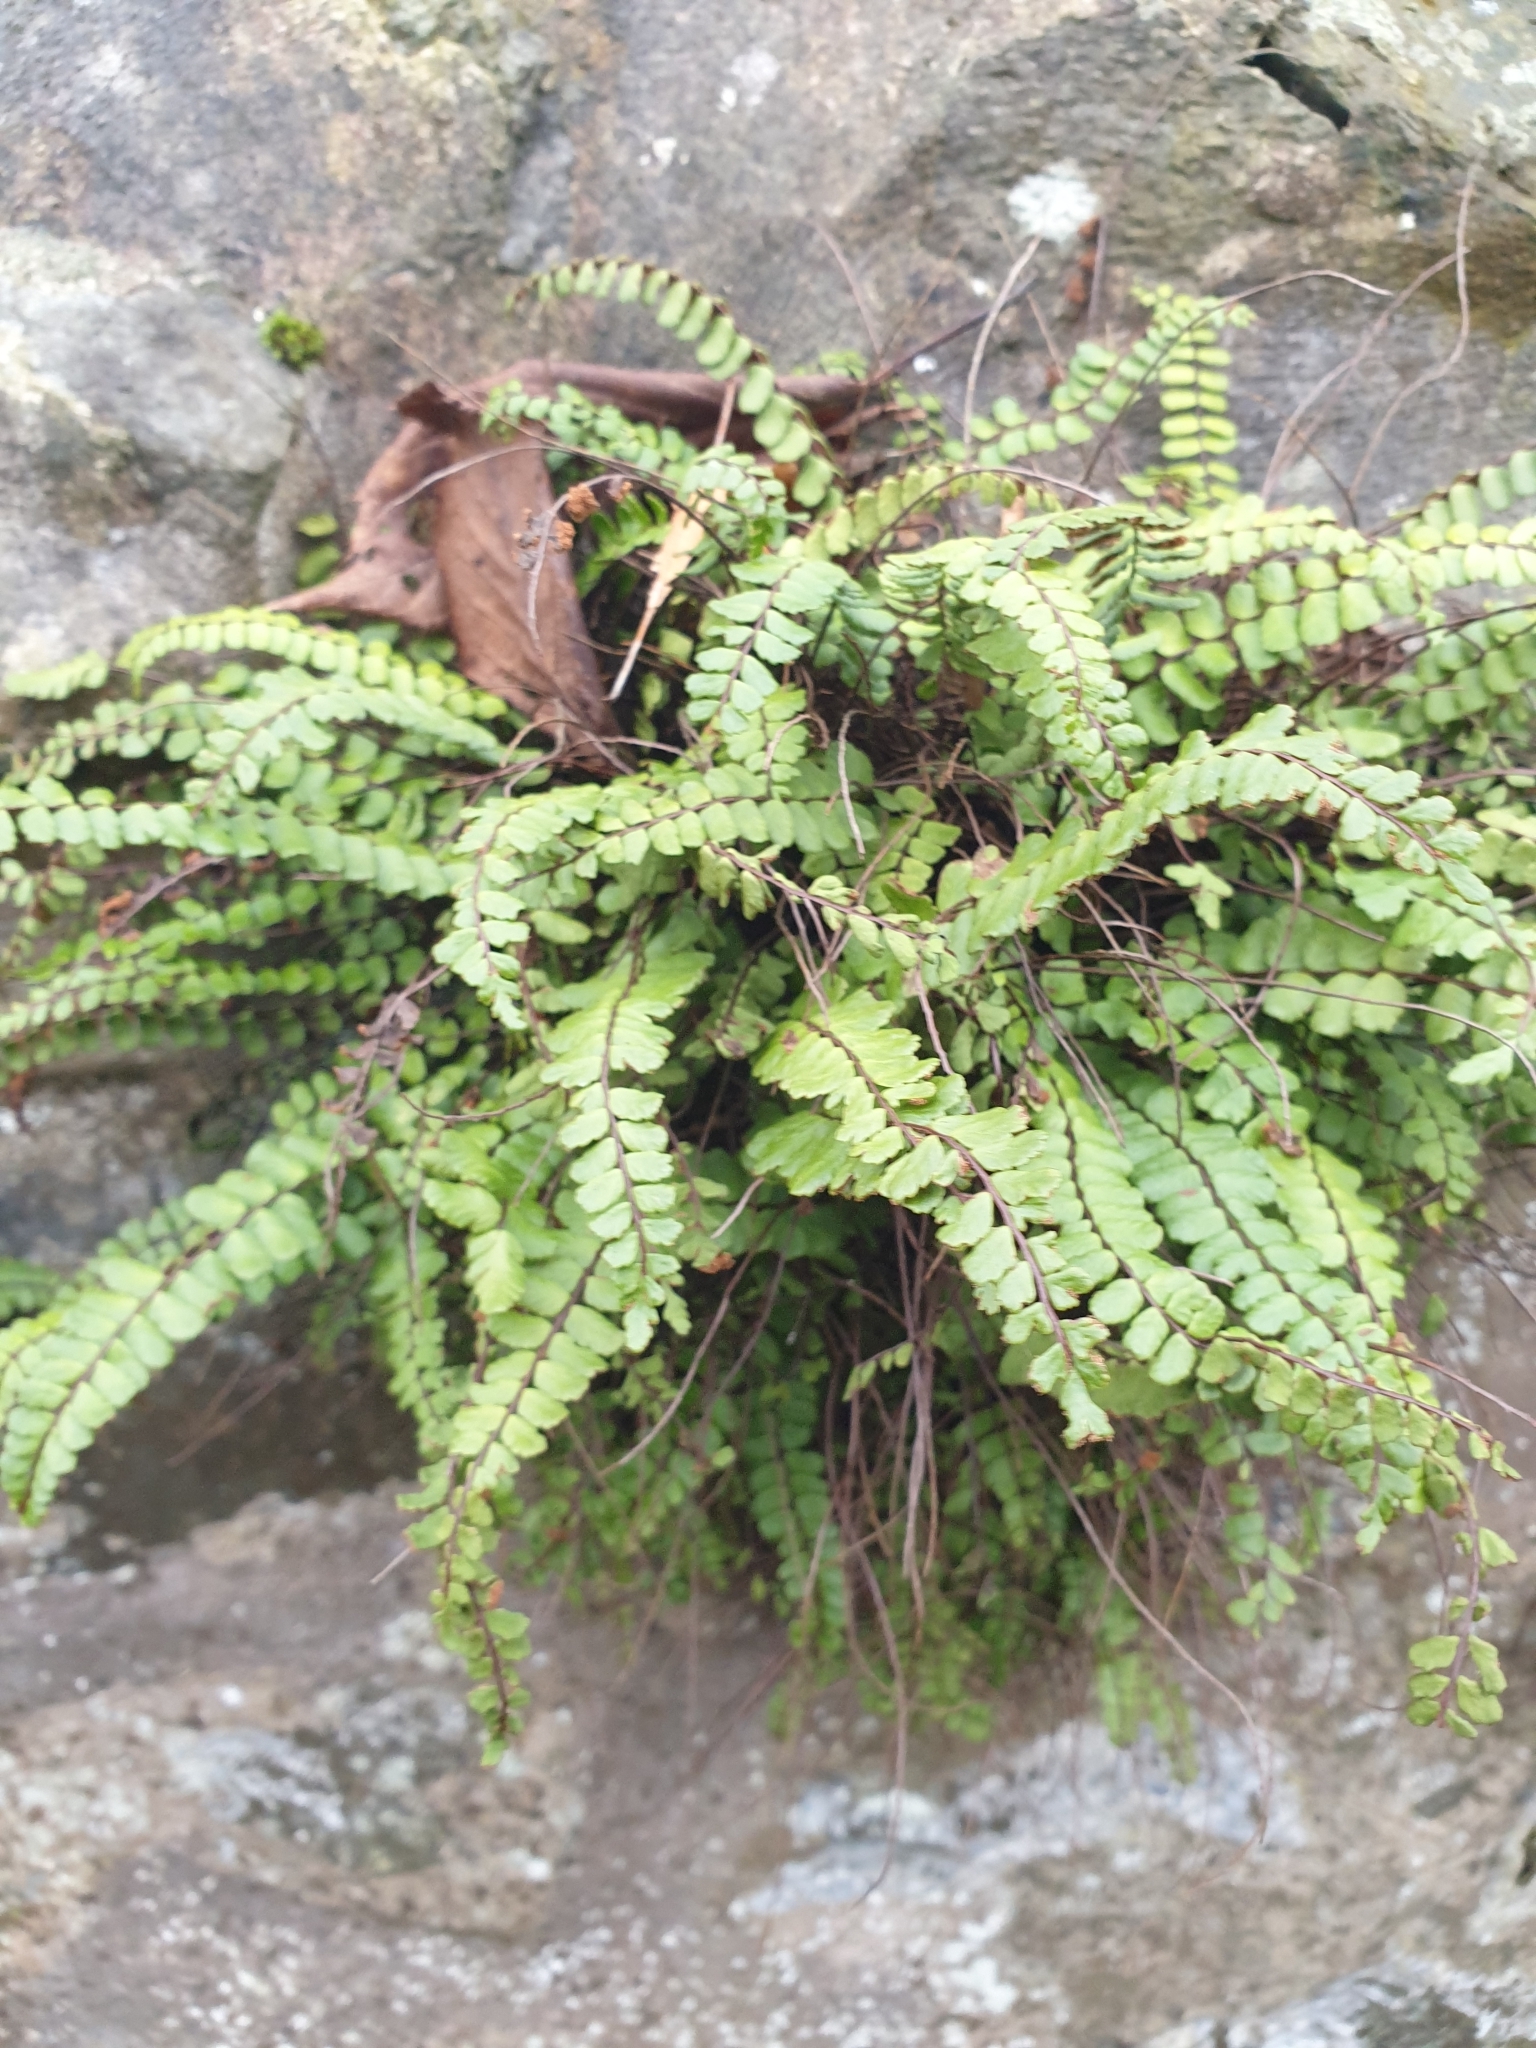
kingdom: Plantae
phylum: Tracheophyta
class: Polypodiopsida
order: Polypodiales
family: Aspleniaceae
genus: Asplenium
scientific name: Asplenium trichomanes
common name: Maidenhair spleenwort
